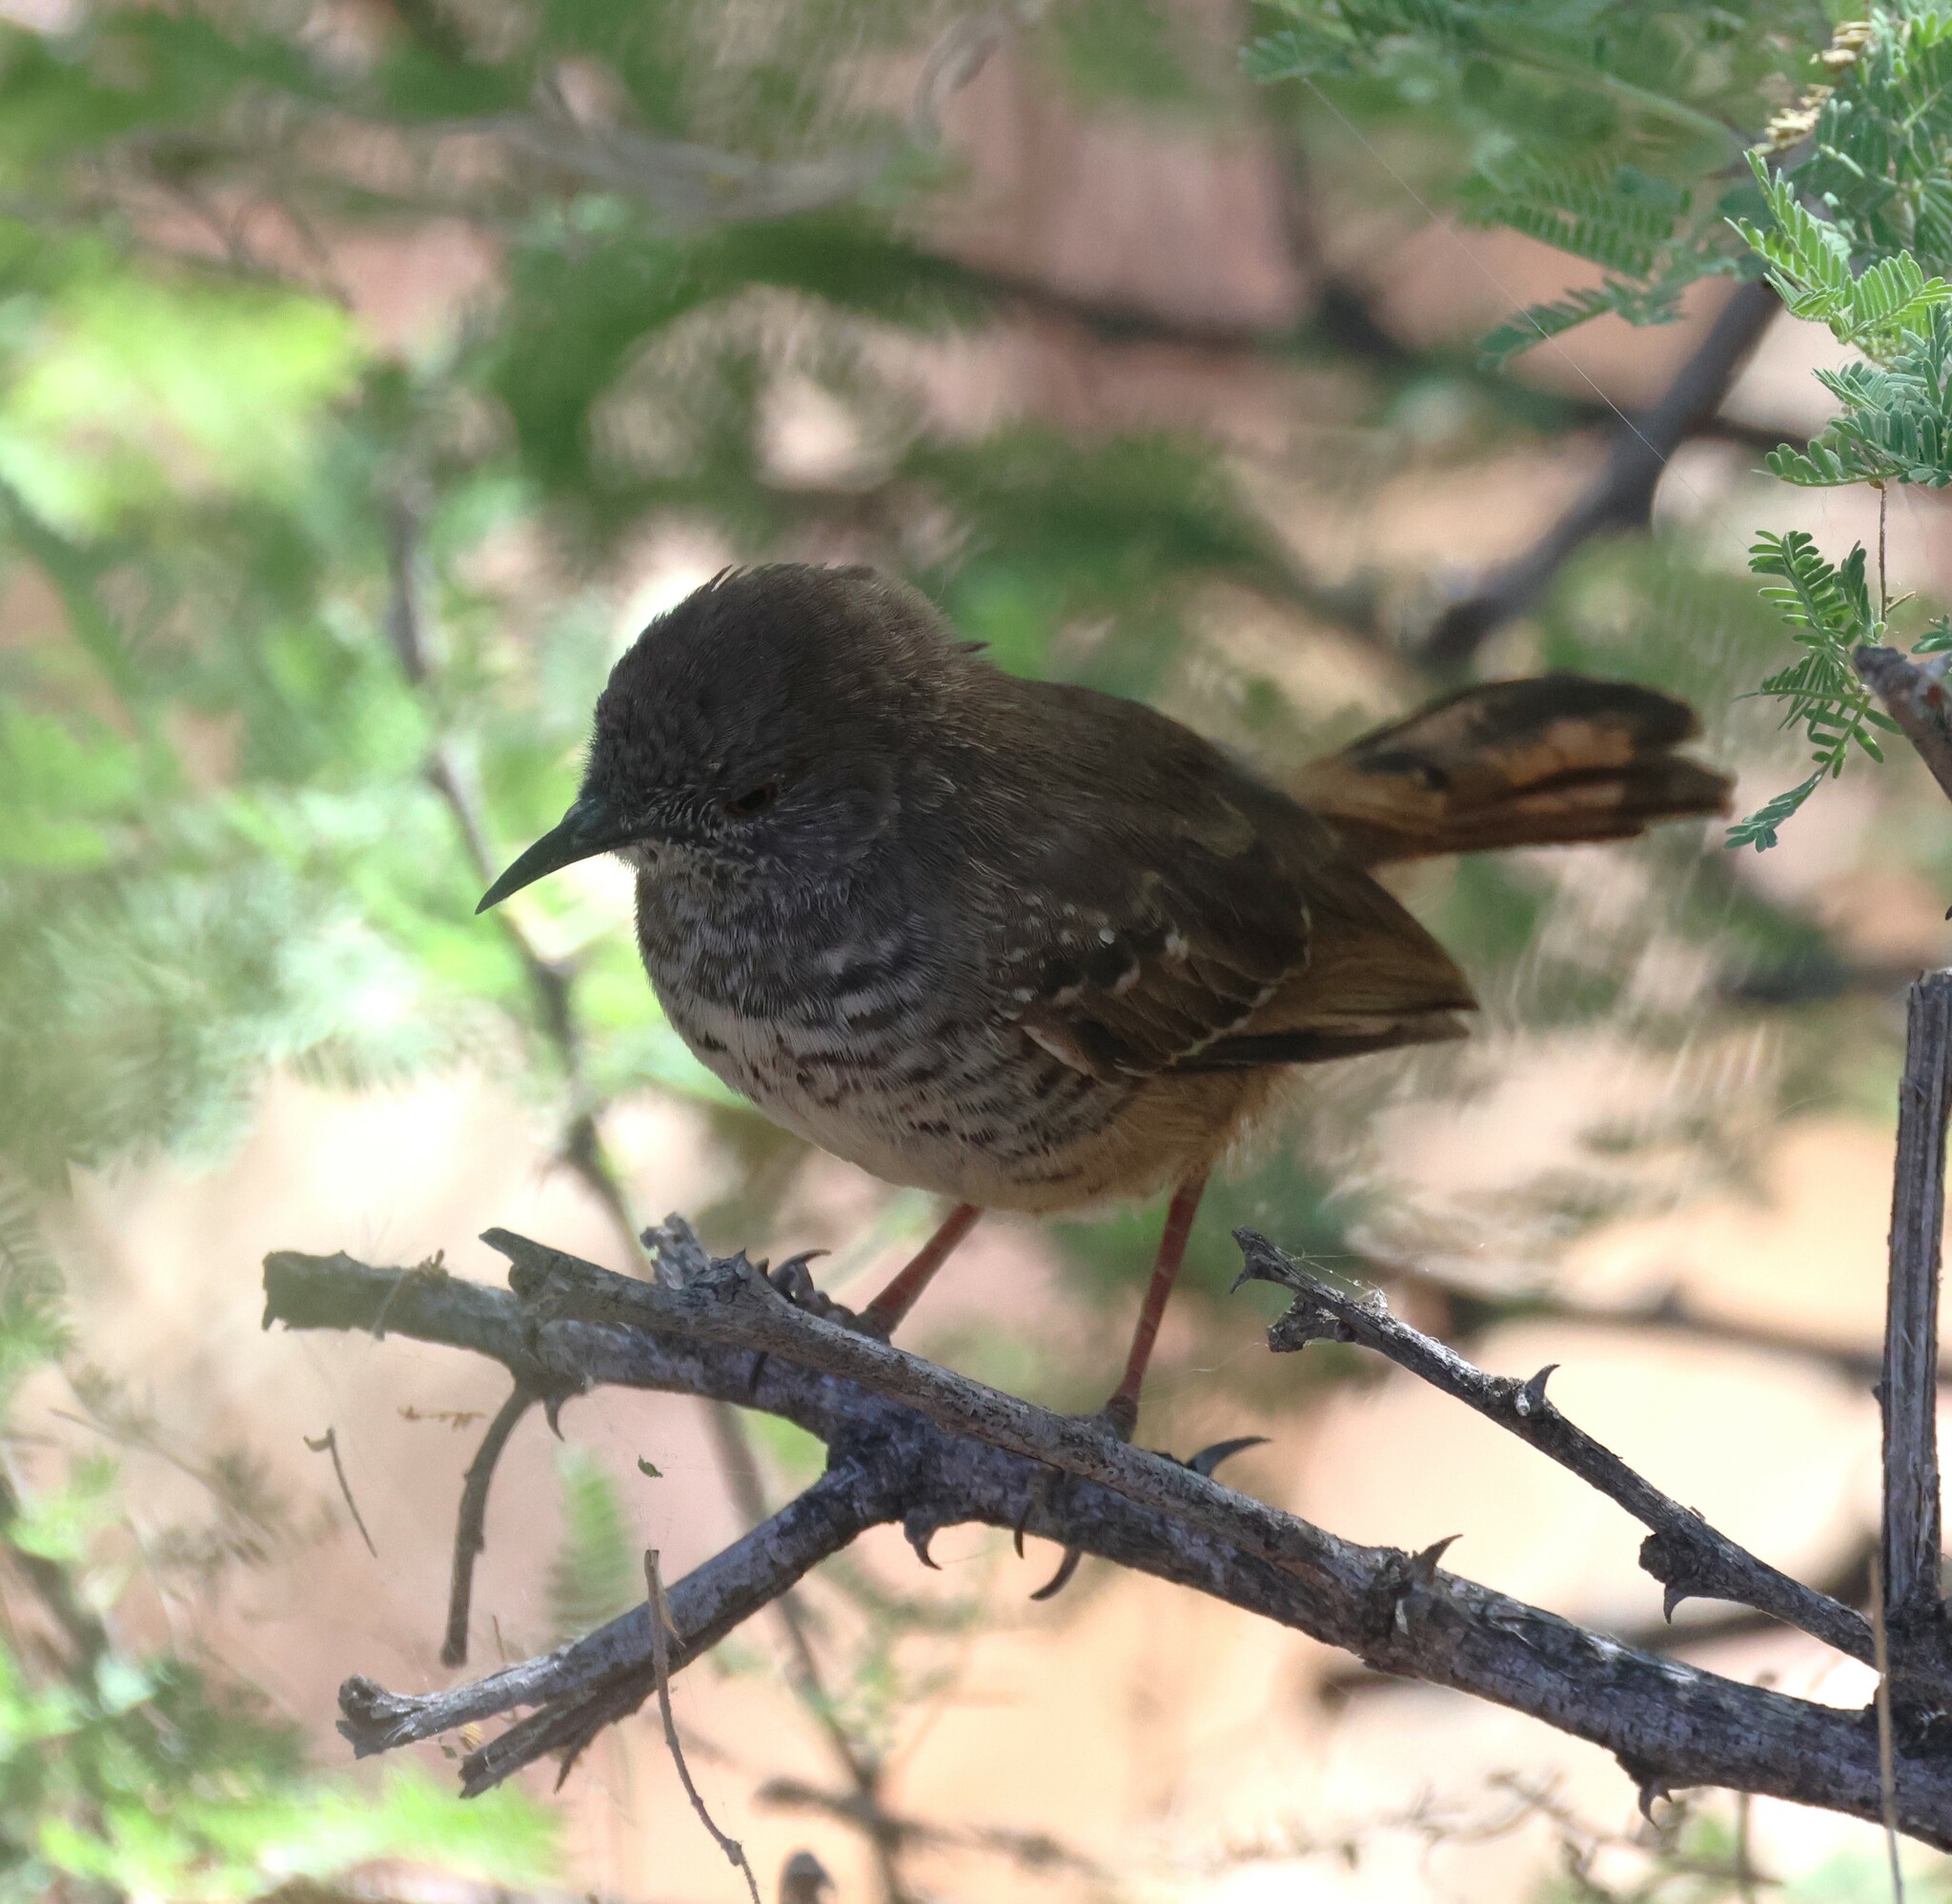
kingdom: Animalia
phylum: Chordata
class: Aves
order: Passeriformes
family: Cisticolidae
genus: Calamonastes
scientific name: Calamonastes fasciolatus
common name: Barred wren-warbler
